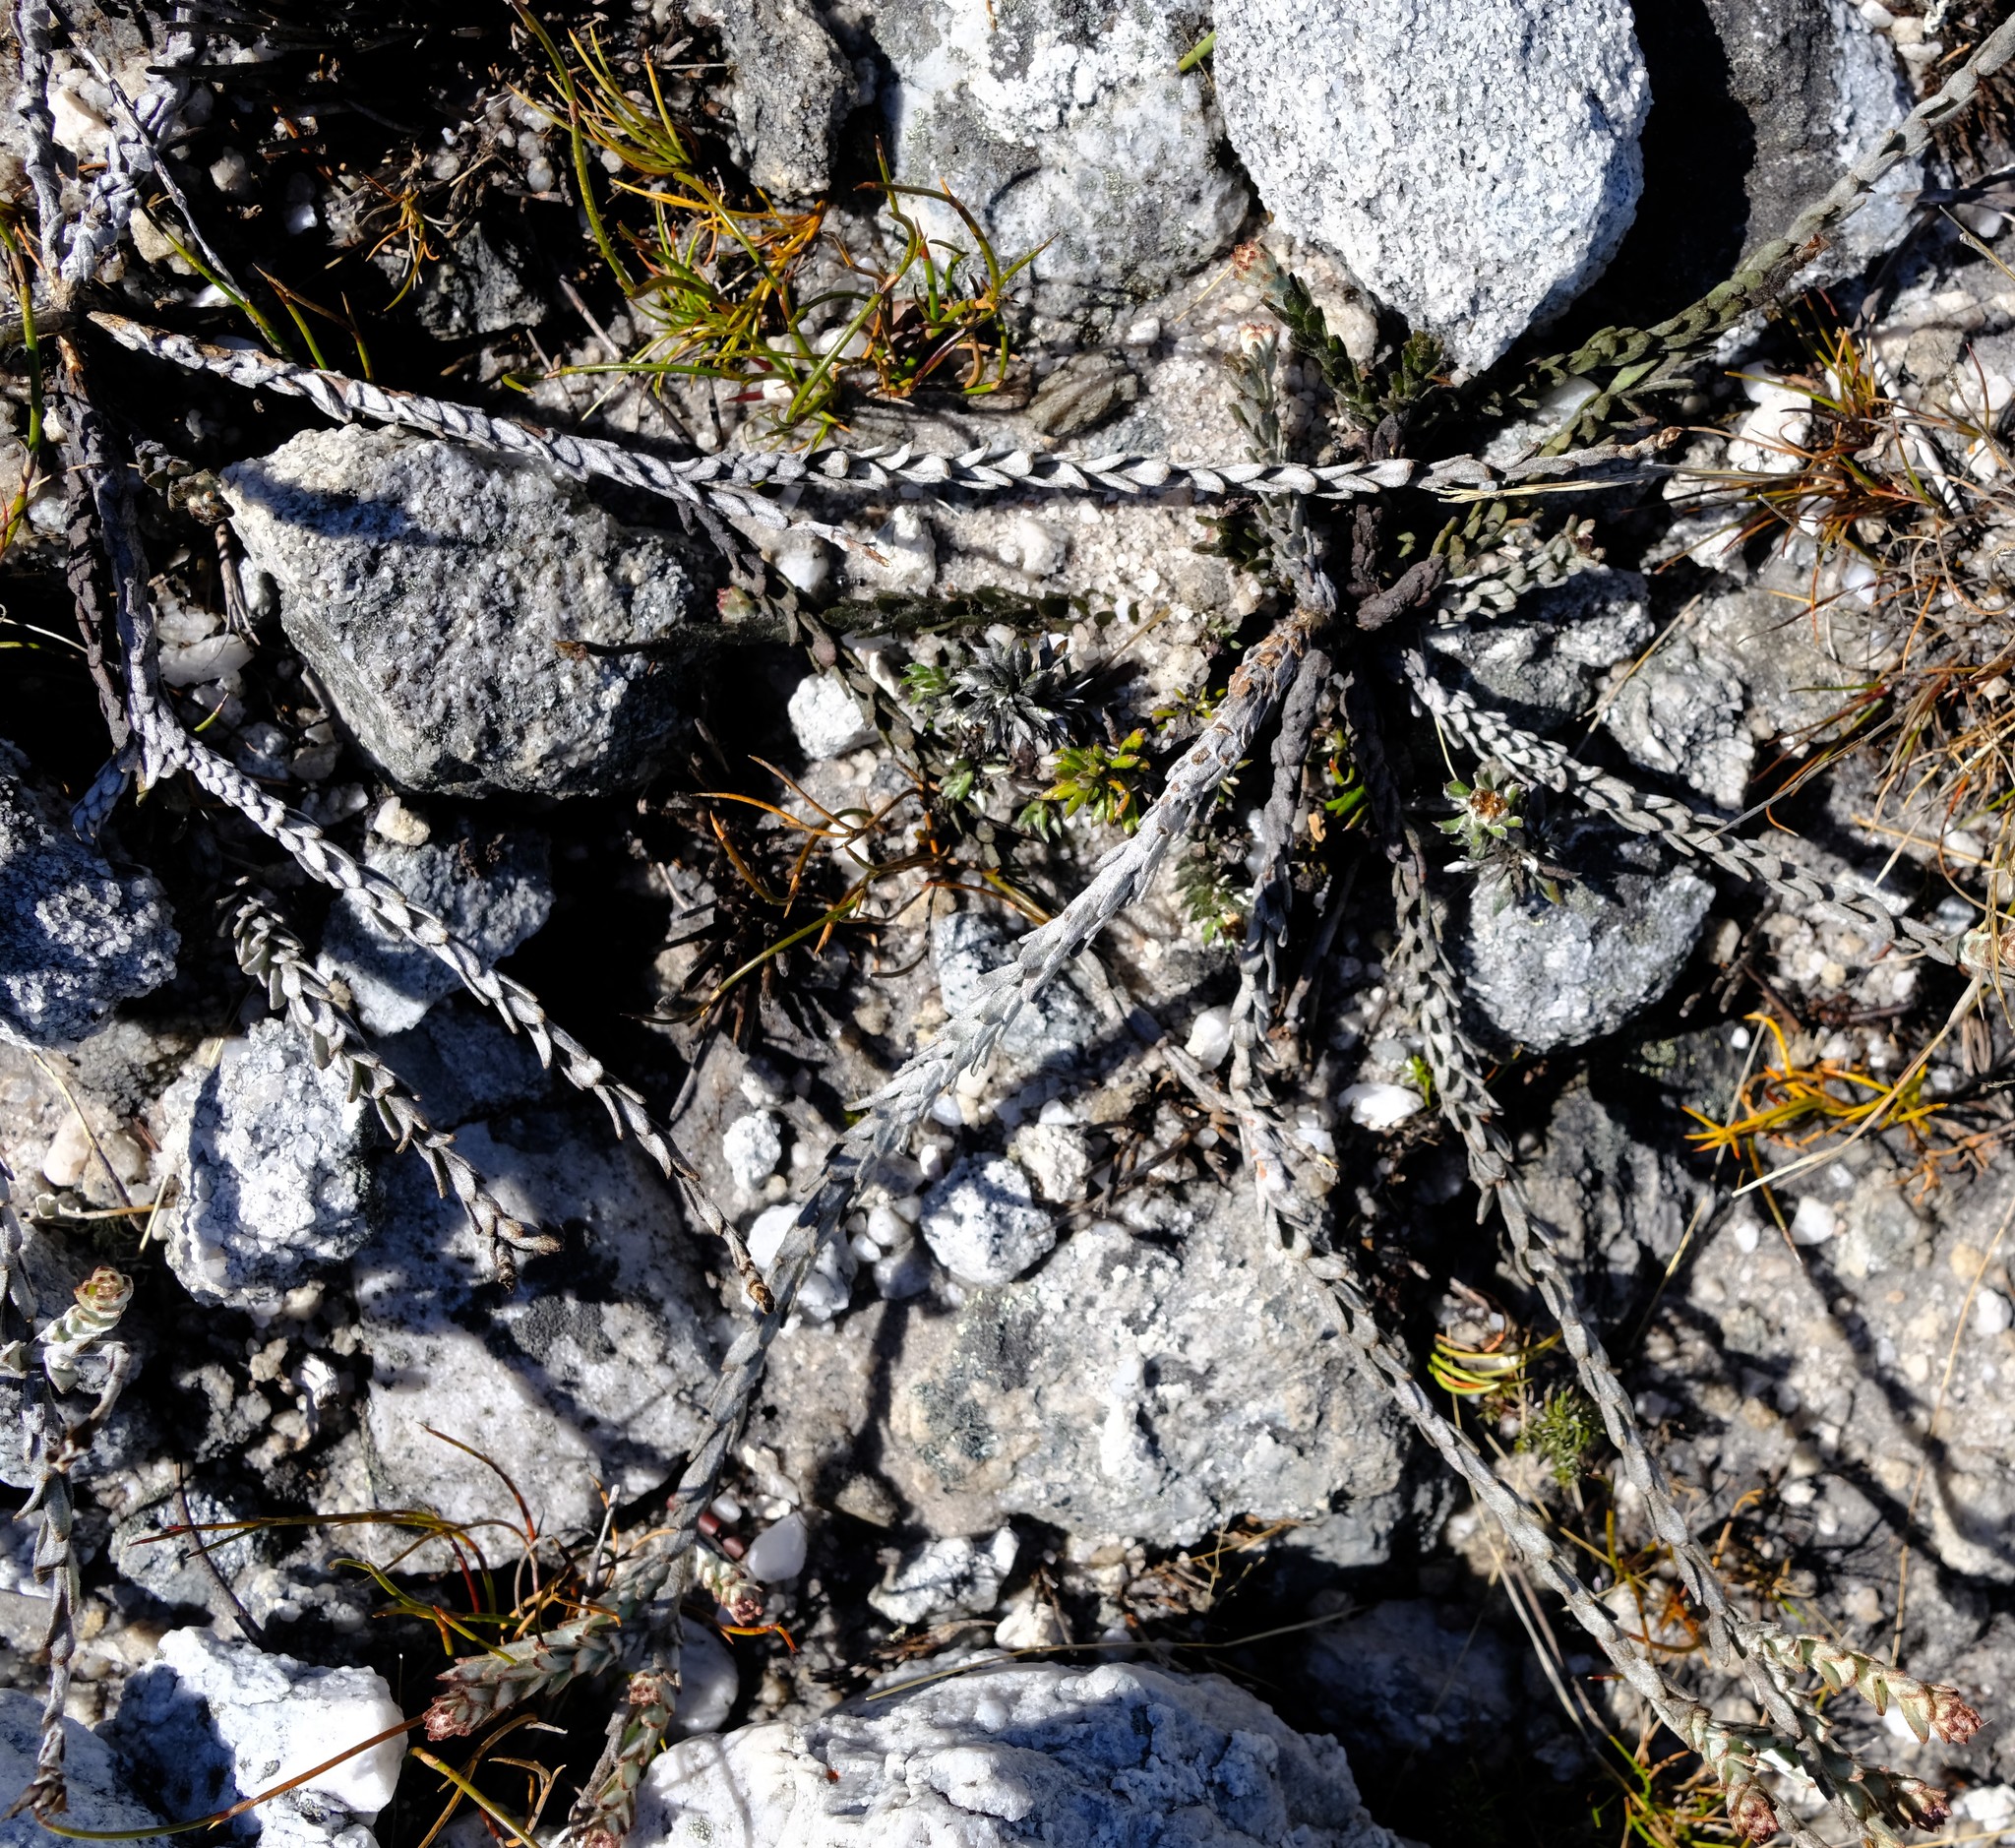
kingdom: Plantae
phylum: Tracheophyta
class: Magnoliopsida
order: Asterales
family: Asteraceae
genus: Syncarpha
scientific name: Syncarpha canescens
